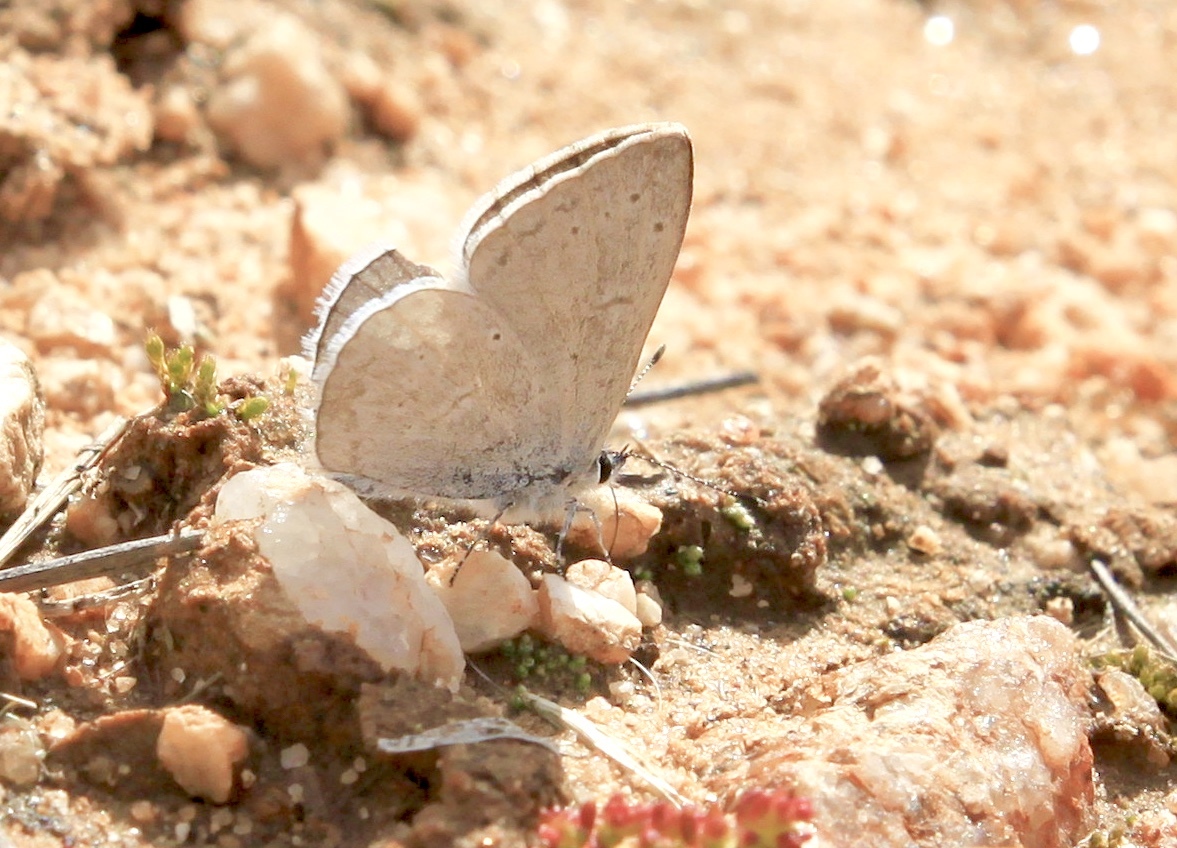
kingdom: Animalia
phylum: Arthropoda
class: Insecta
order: Lepidoptera
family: Lycaenidae
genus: Celastrina
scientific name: Celastrina ladon
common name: Spring azure
